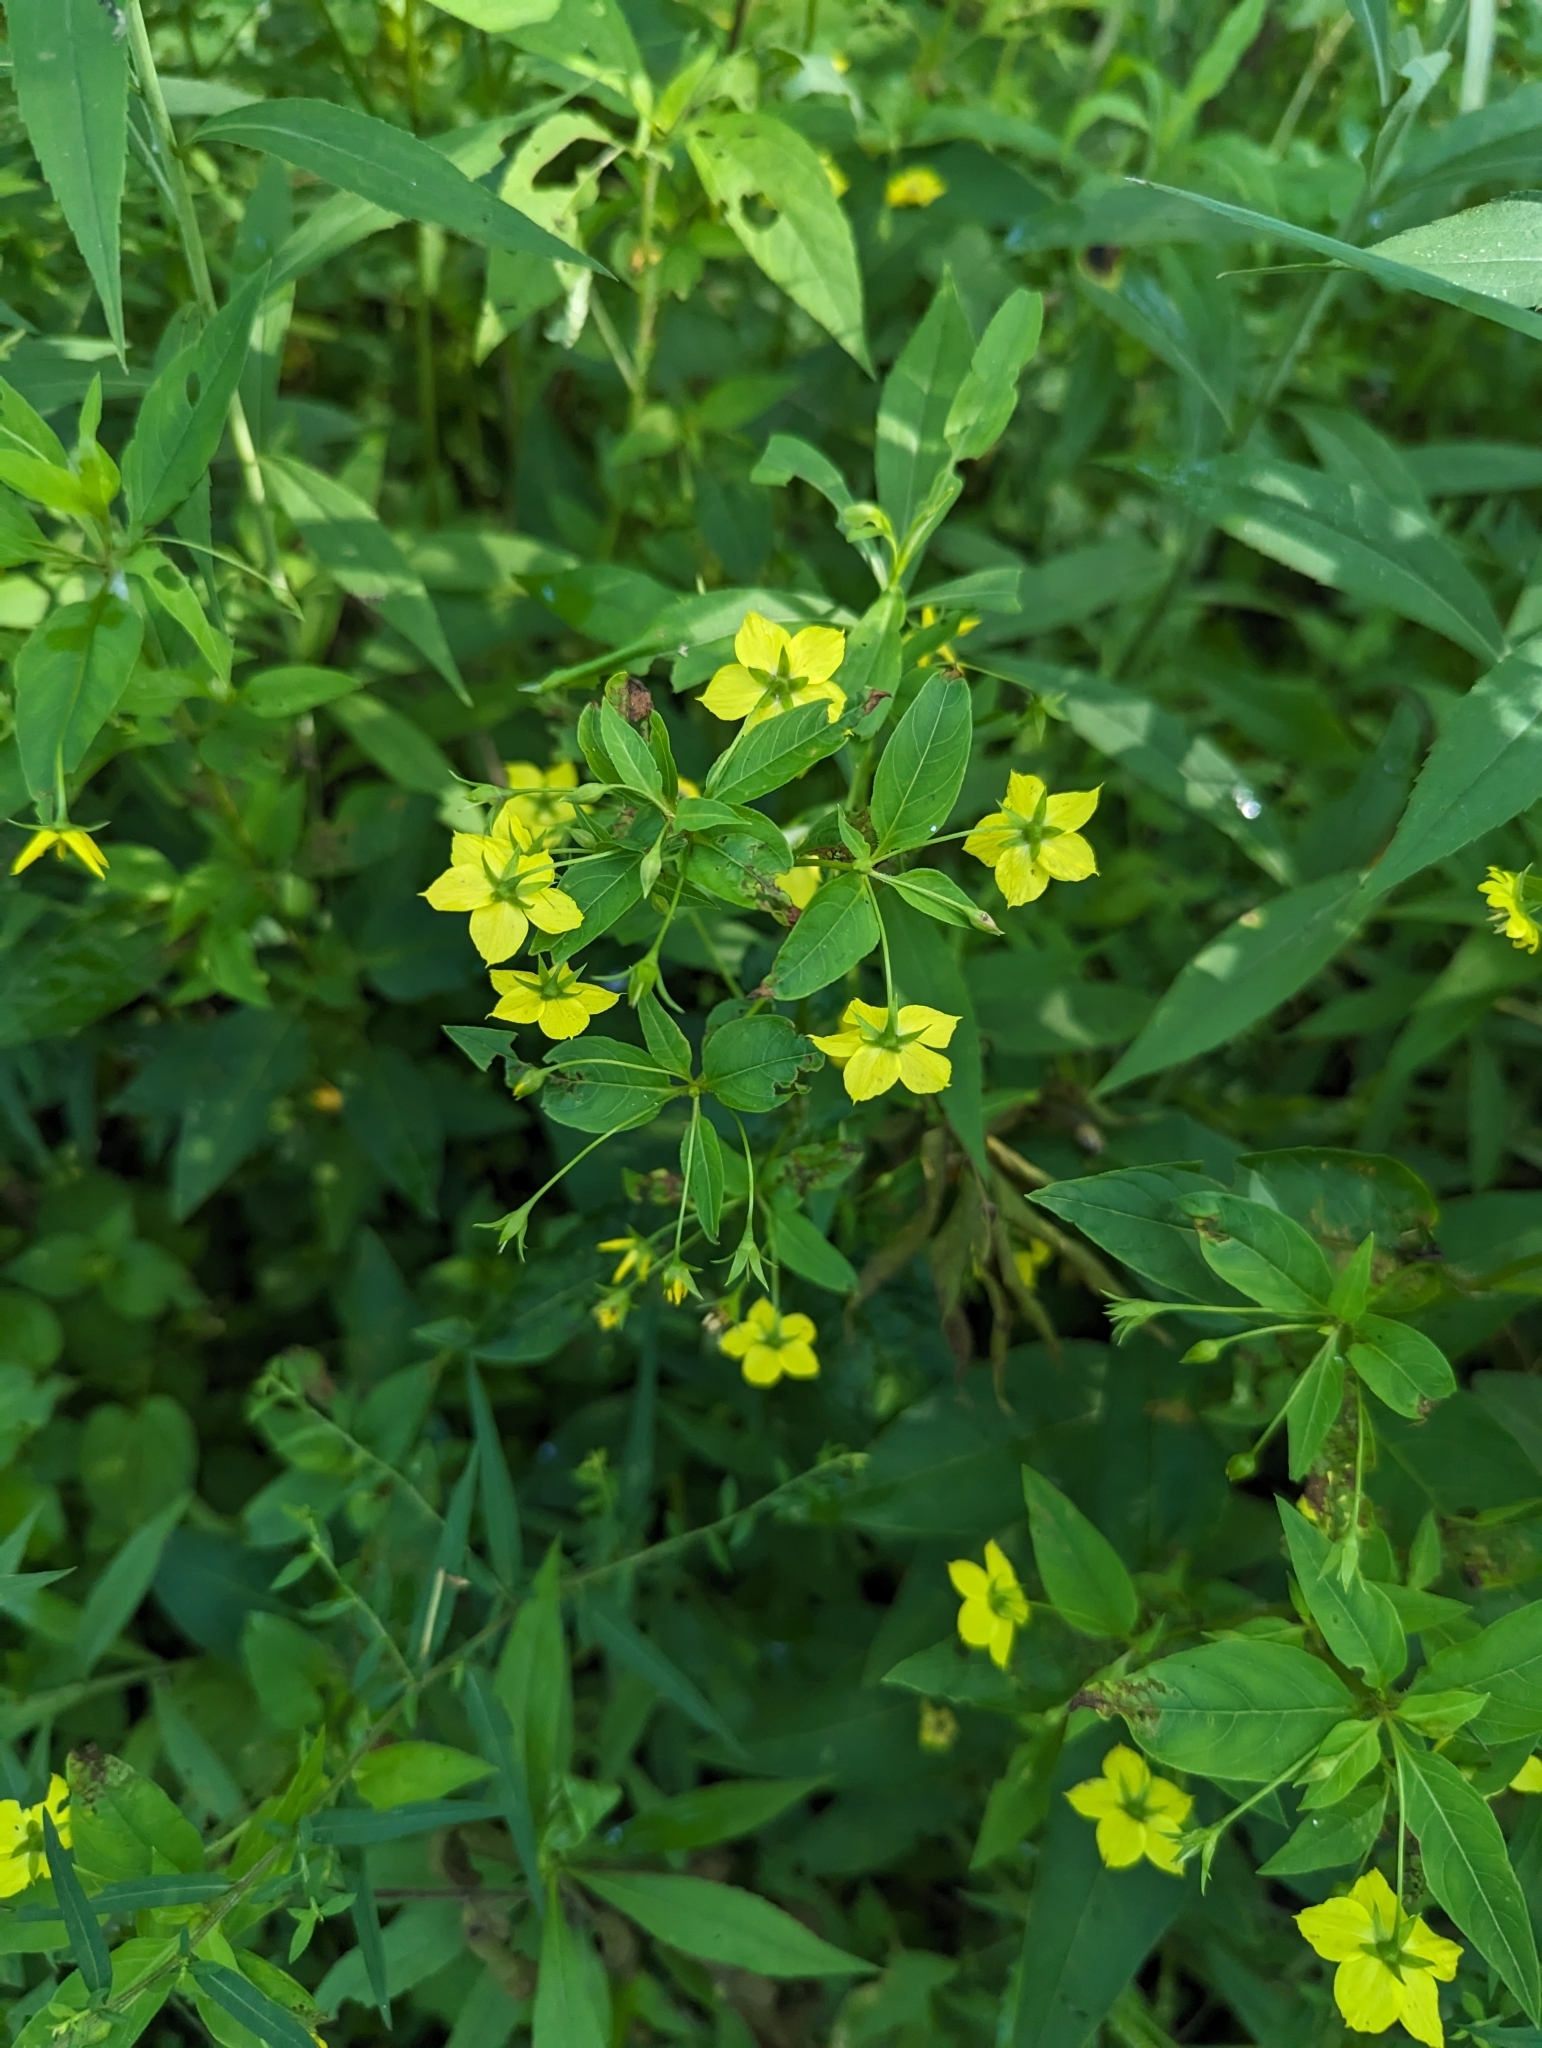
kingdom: Plantae
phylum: Tracheophyta
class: Magnoliopsida
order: Ericales
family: Primulaceae
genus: Lysimachia
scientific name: Lysimachia ciliata
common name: Fringed loosestrife
